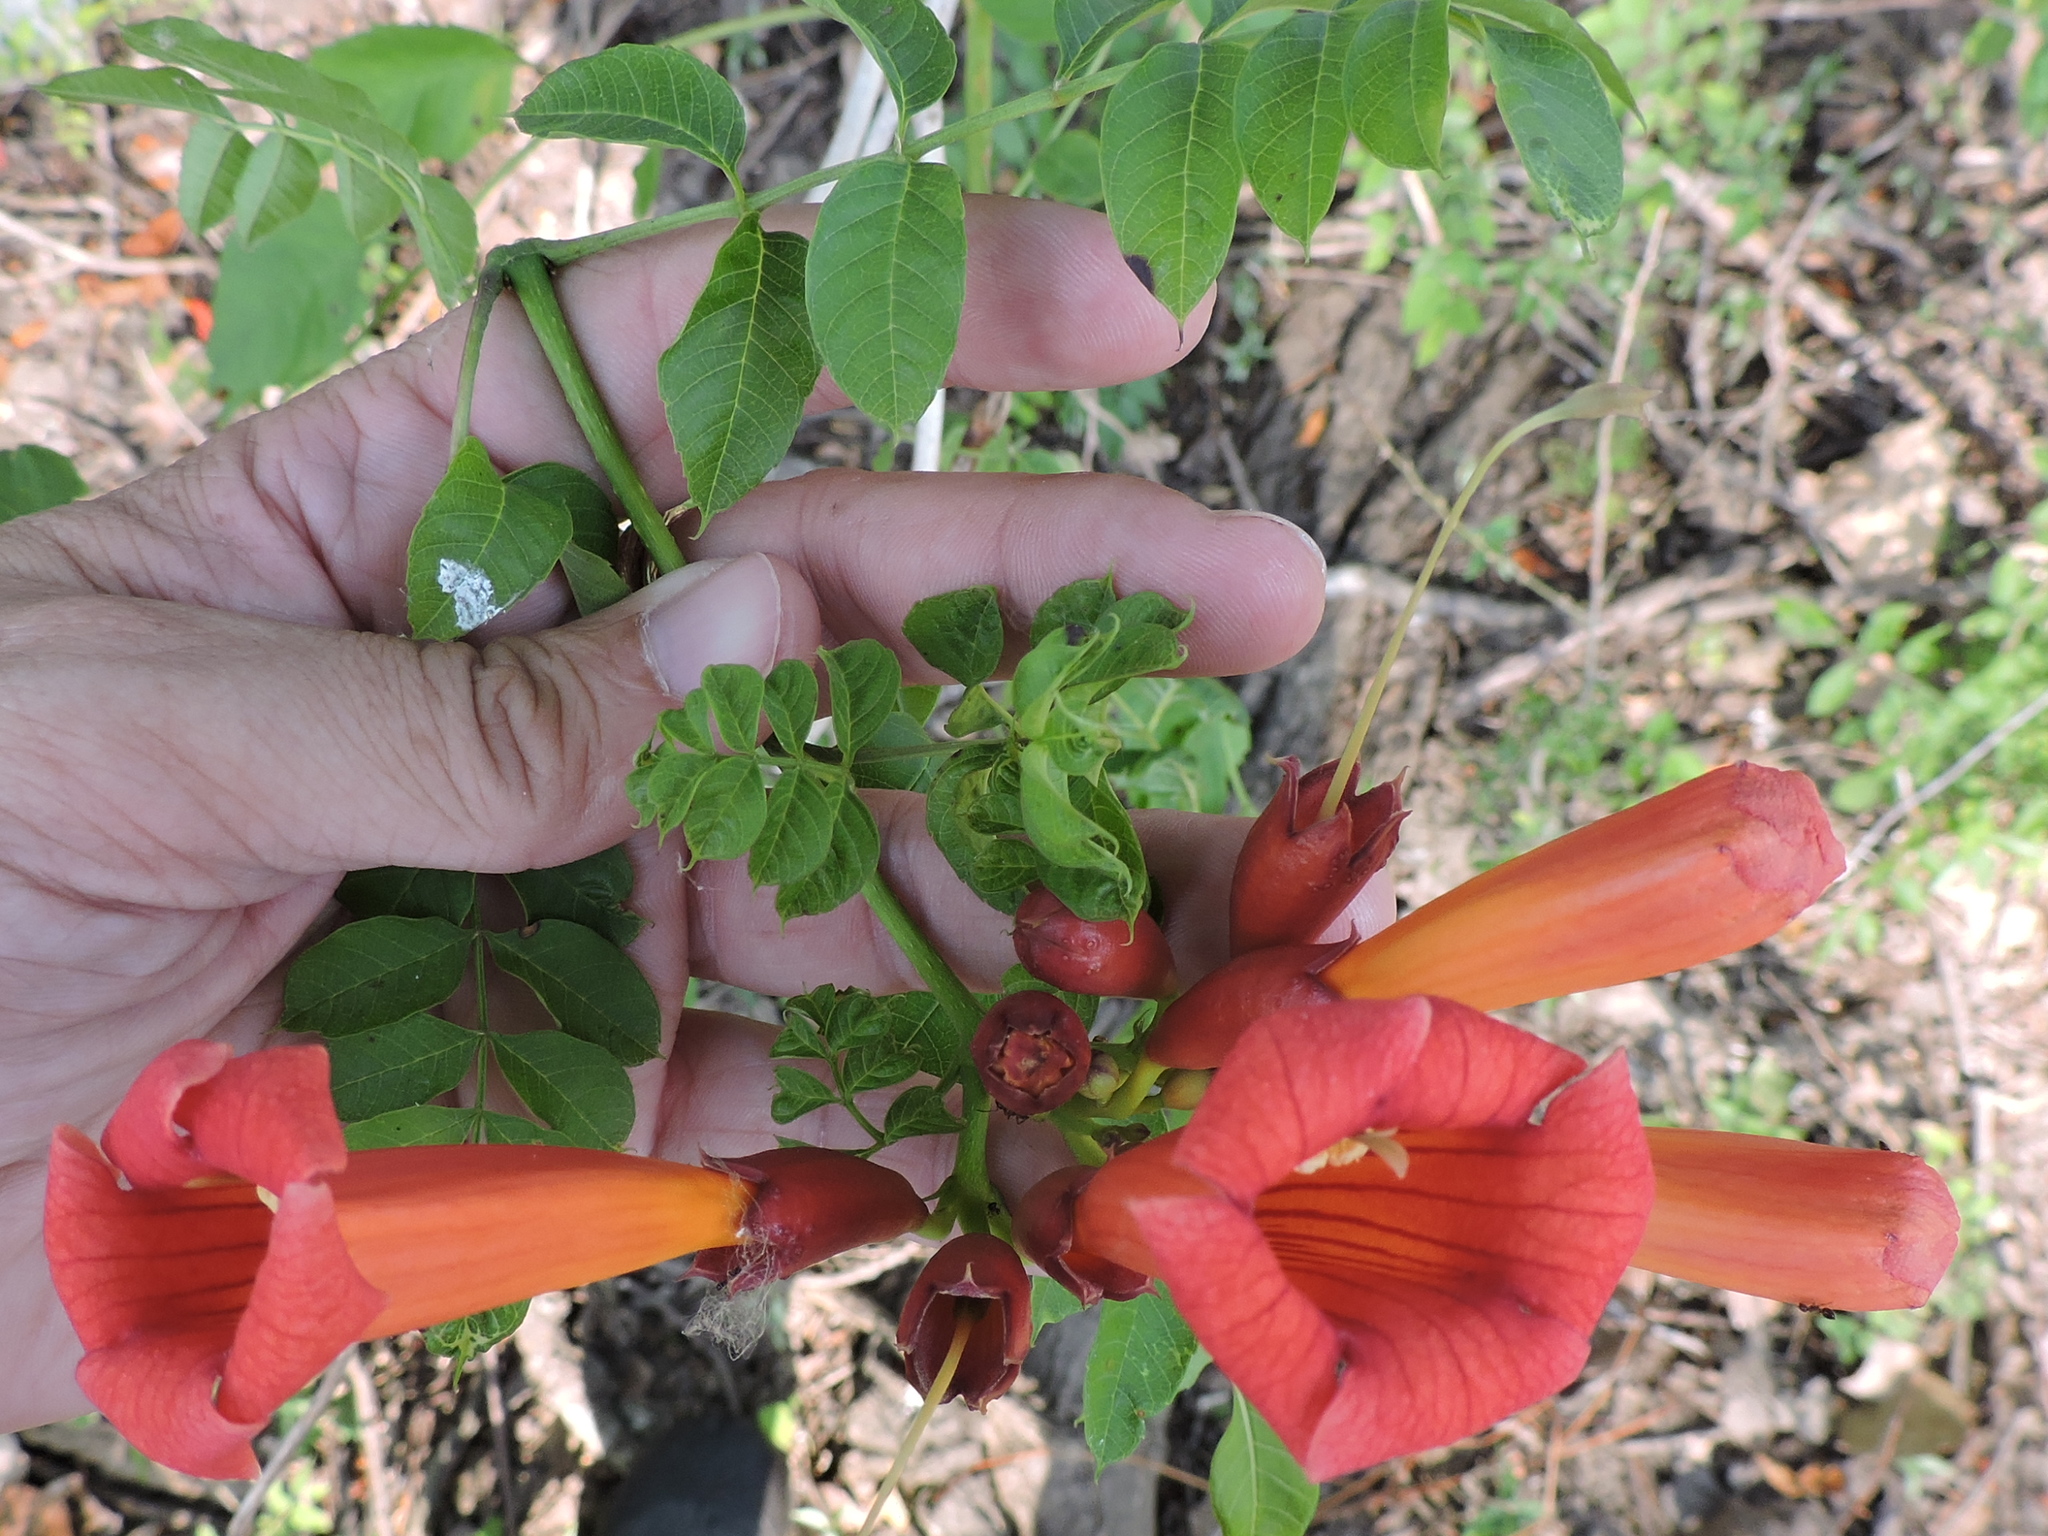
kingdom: Plantae
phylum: Tracheophyta
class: Magnoliopsida
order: Lamiales
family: Bignoniaceae
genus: Campsis
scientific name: Campsis radicans
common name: Trumpet-creeper
